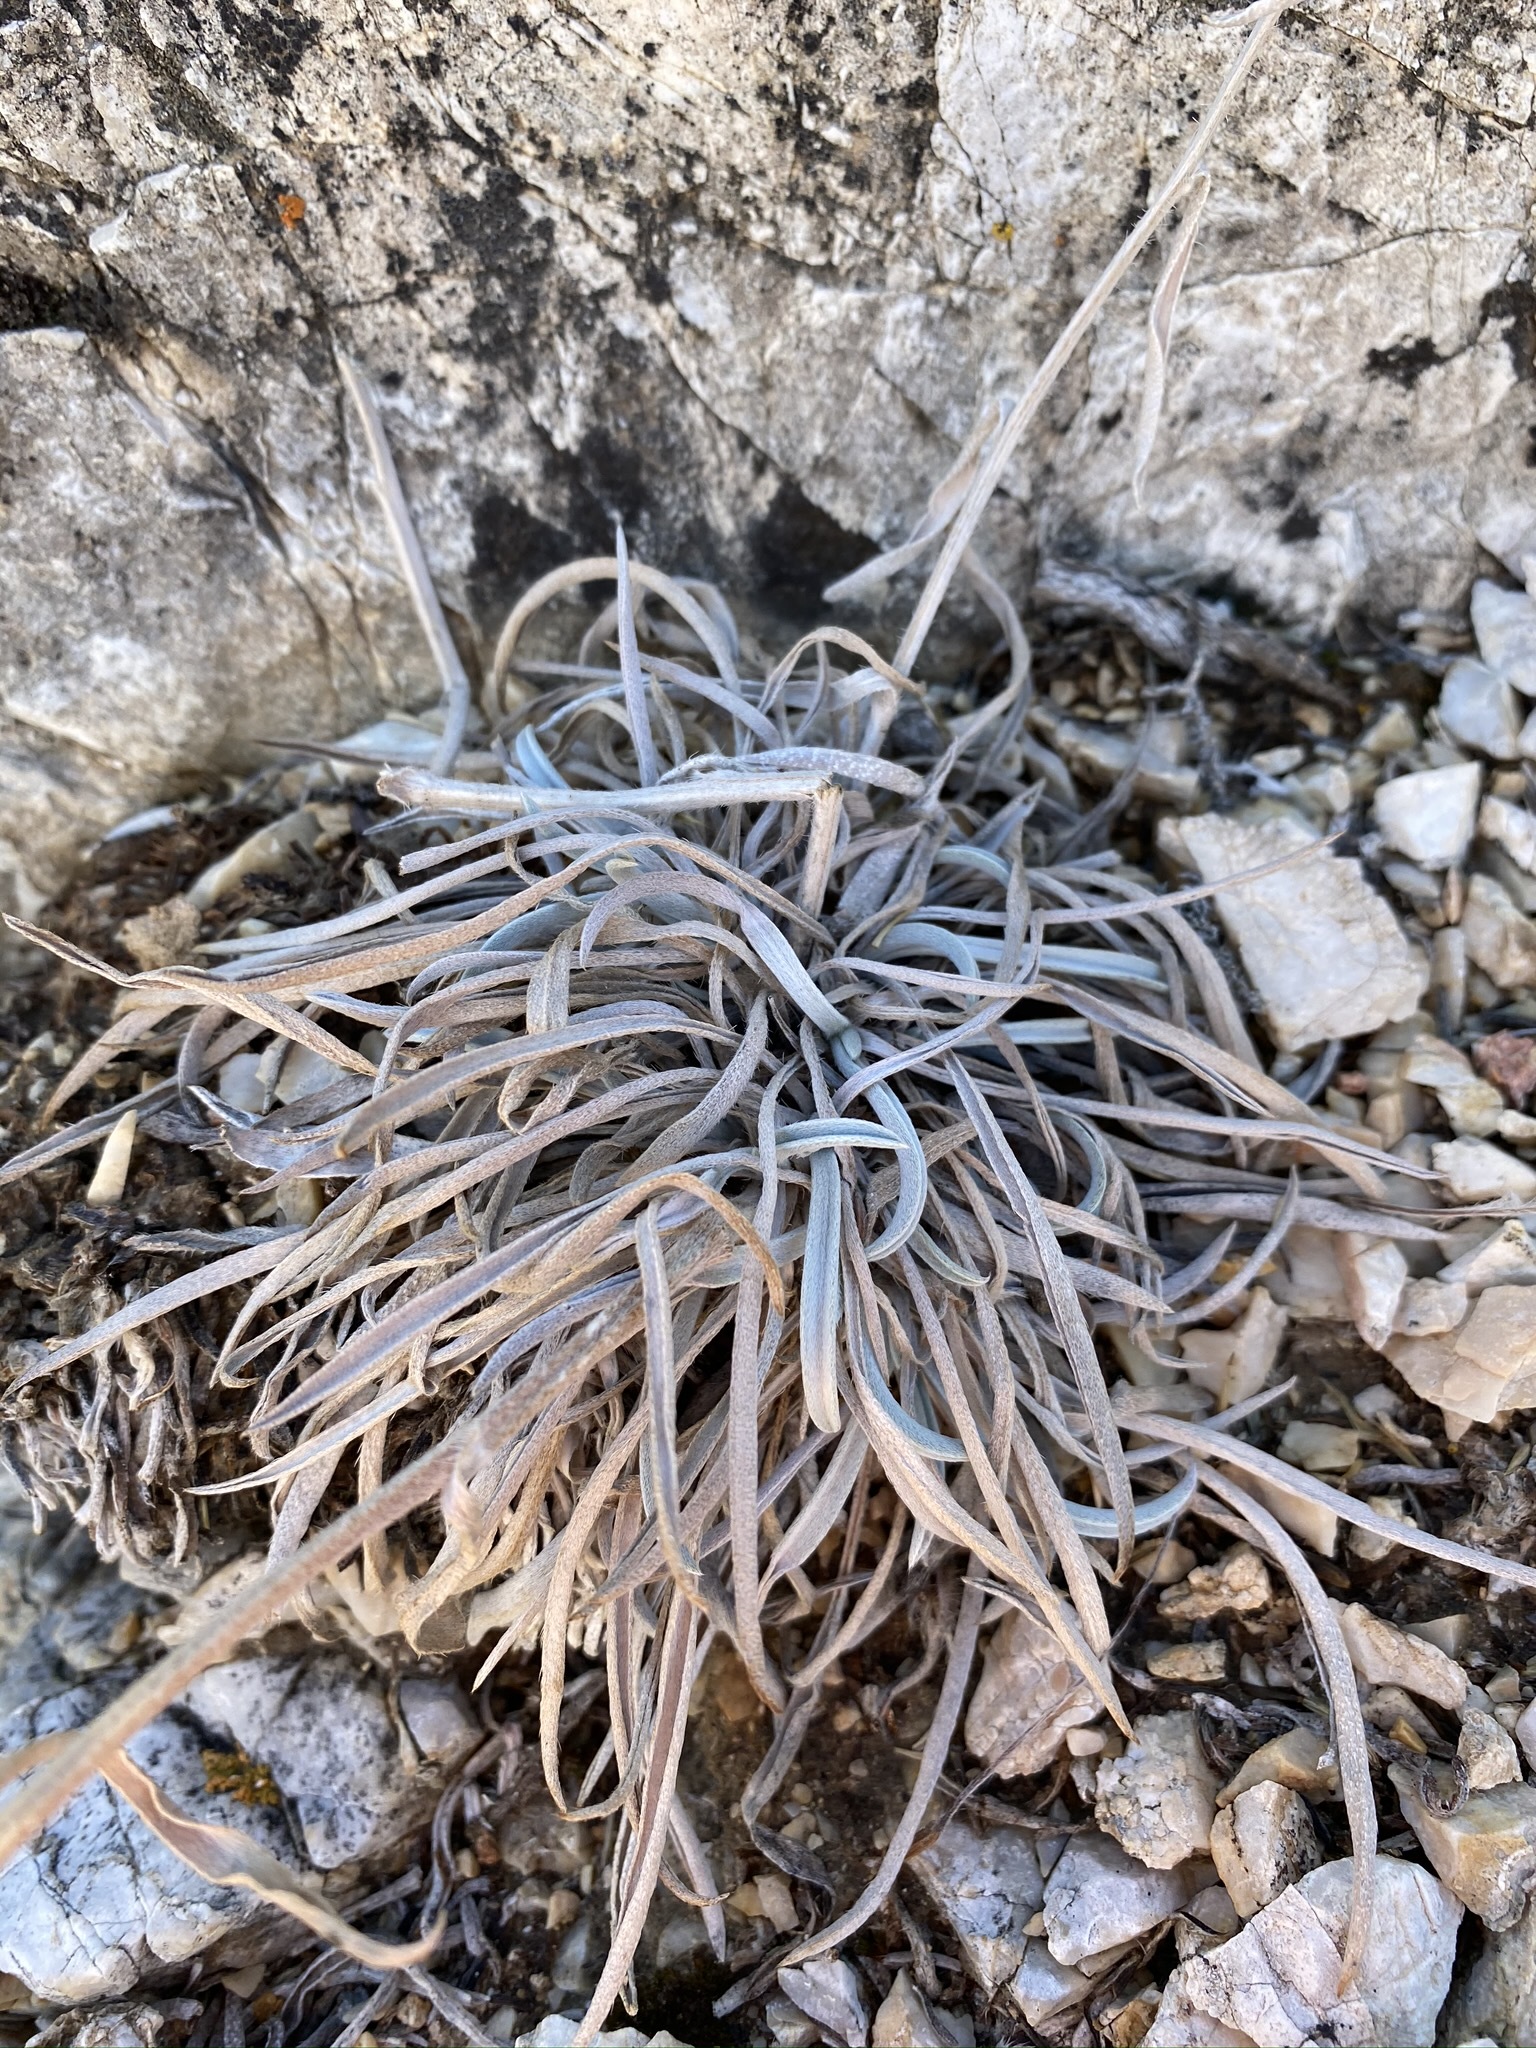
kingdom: Plantae
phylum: Tracheophyta
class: Magnoliopsida
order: Boraginales
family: Boraginaceae
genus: Oreocarya
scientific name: Oreocarya confertiflora
